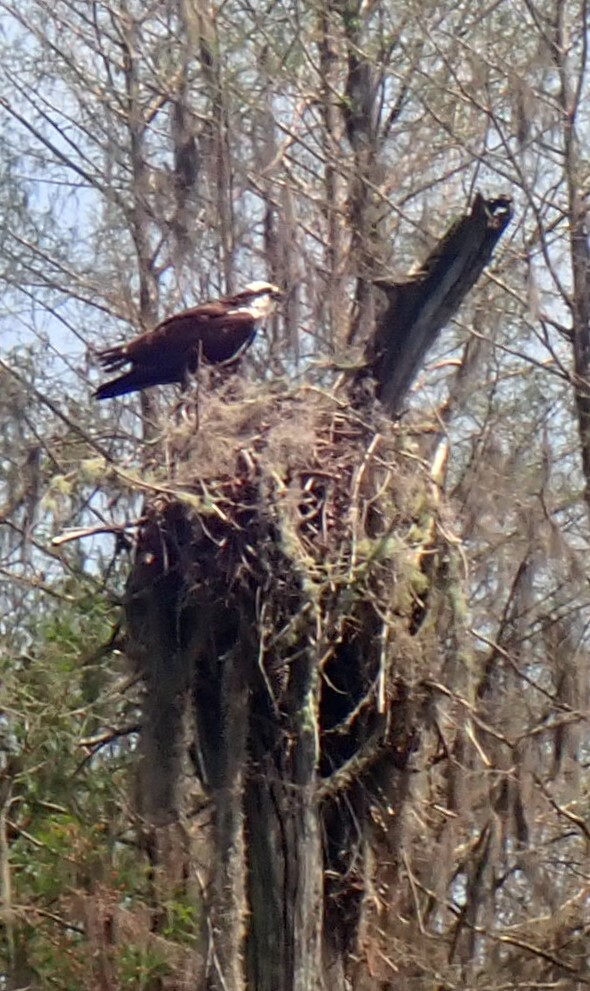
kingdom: Animalia
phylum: Chordata
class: Aves
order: Accipitriformes
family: Pandionidae
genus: Pandion
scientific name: Pandion haliaetus
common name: Osprey
